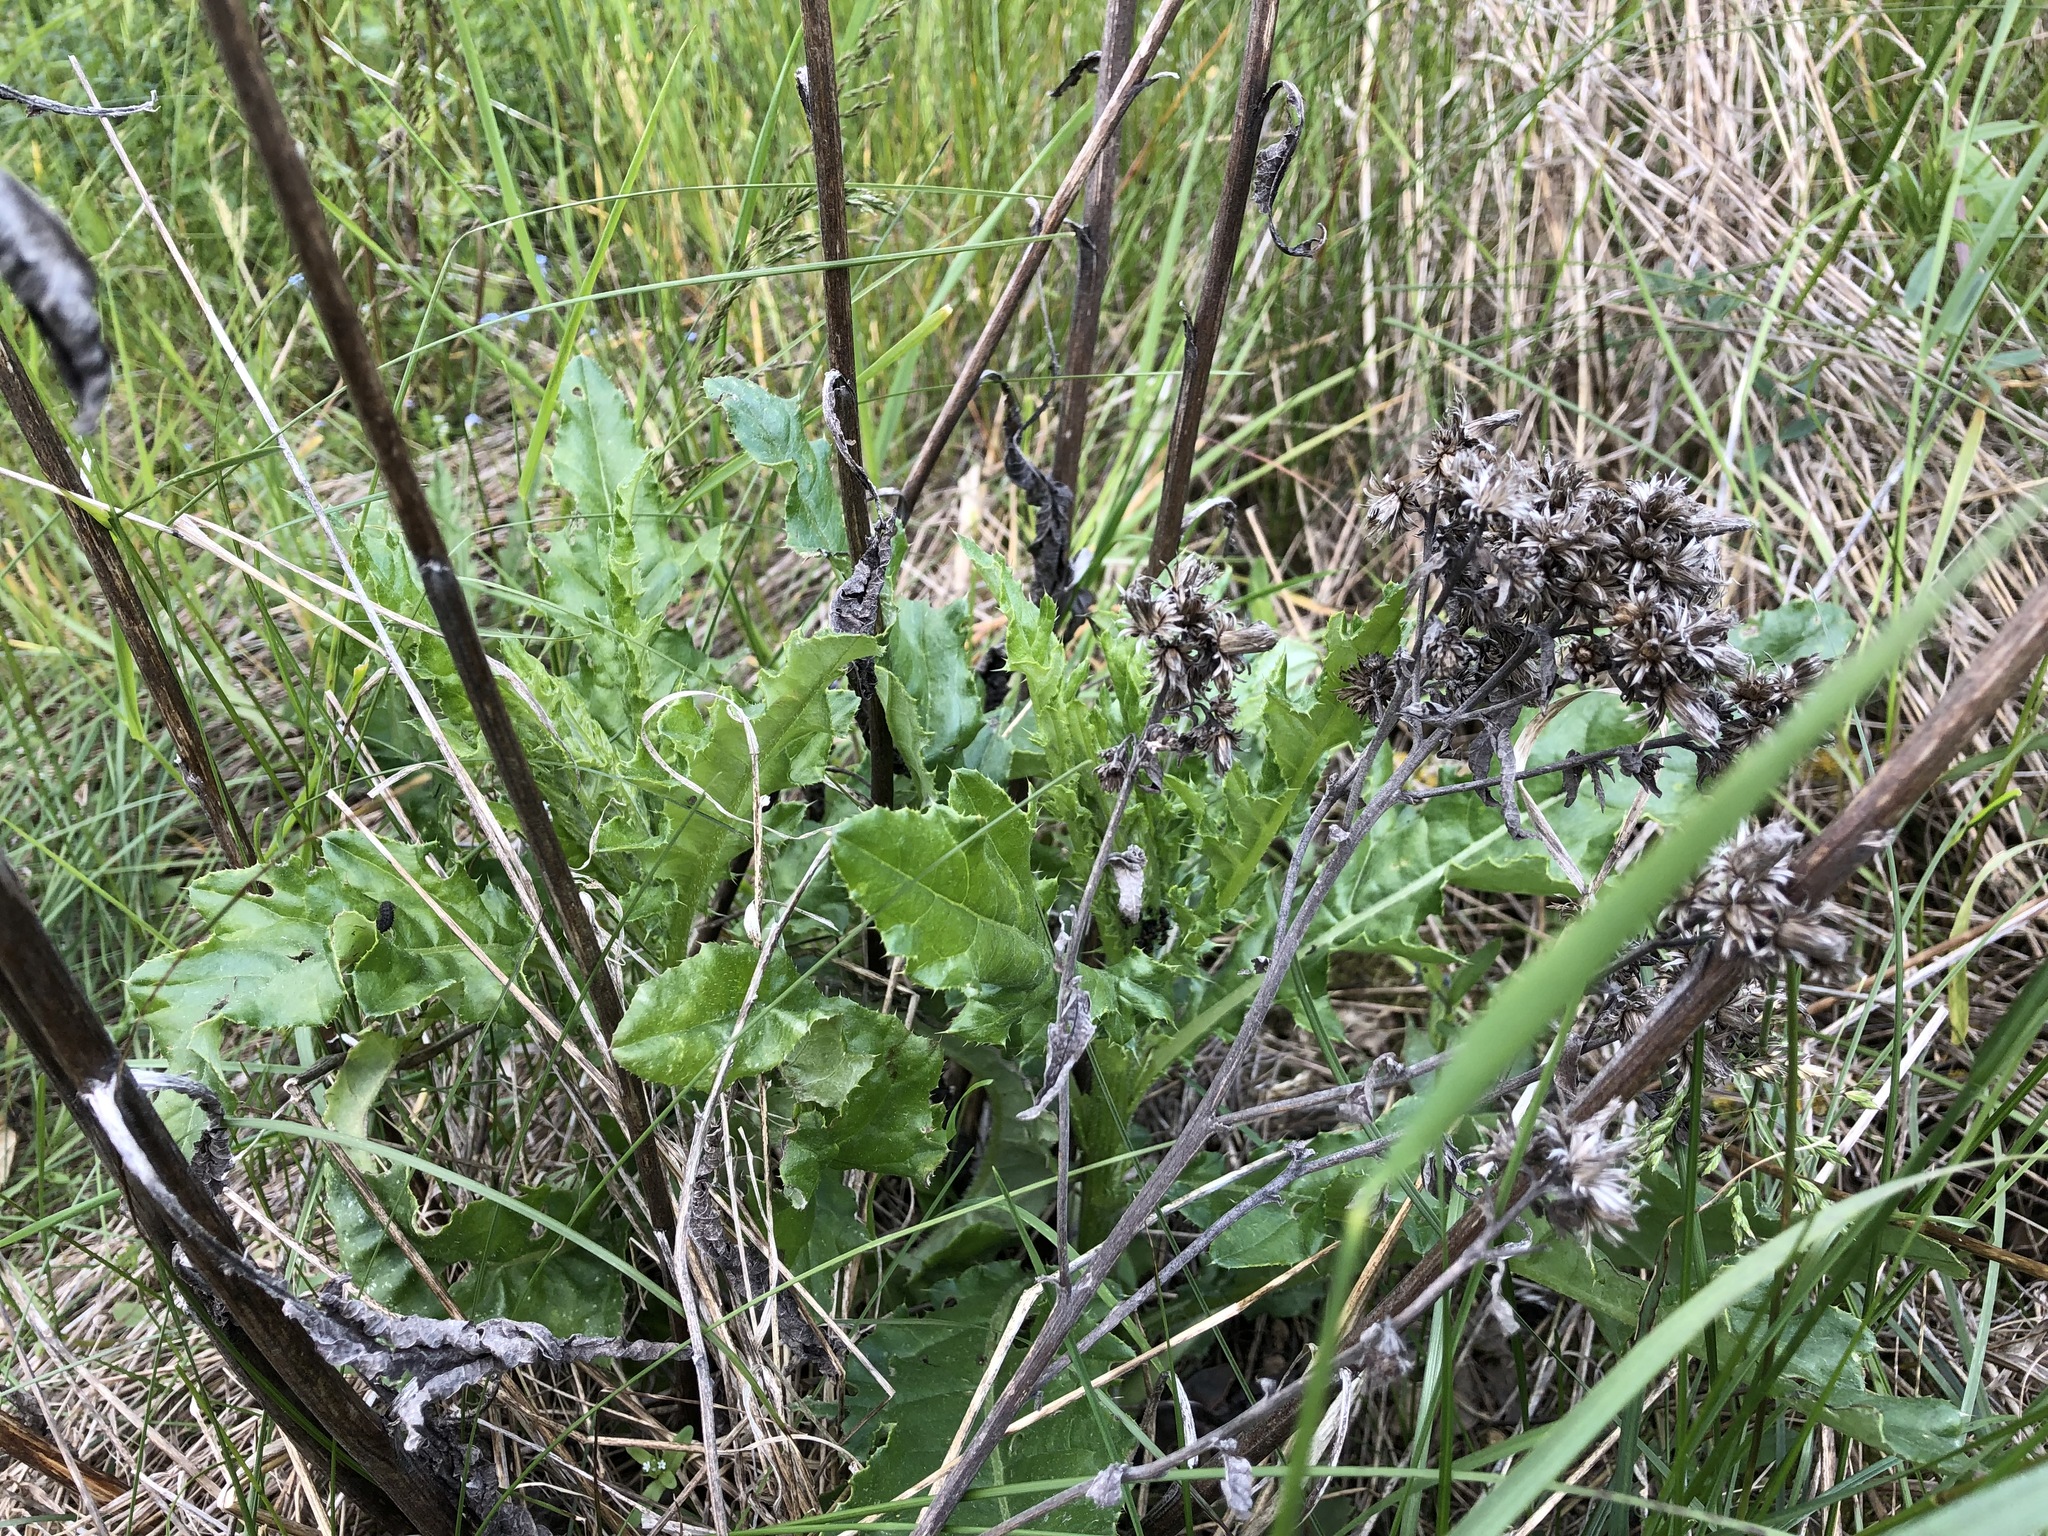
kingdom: Plantae
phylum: Tracheophyta
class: Magnoliopsida
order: Asterales
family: Asteraceae
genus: Cirsium
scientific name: Cirsium arvense
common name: Creeping thistle
